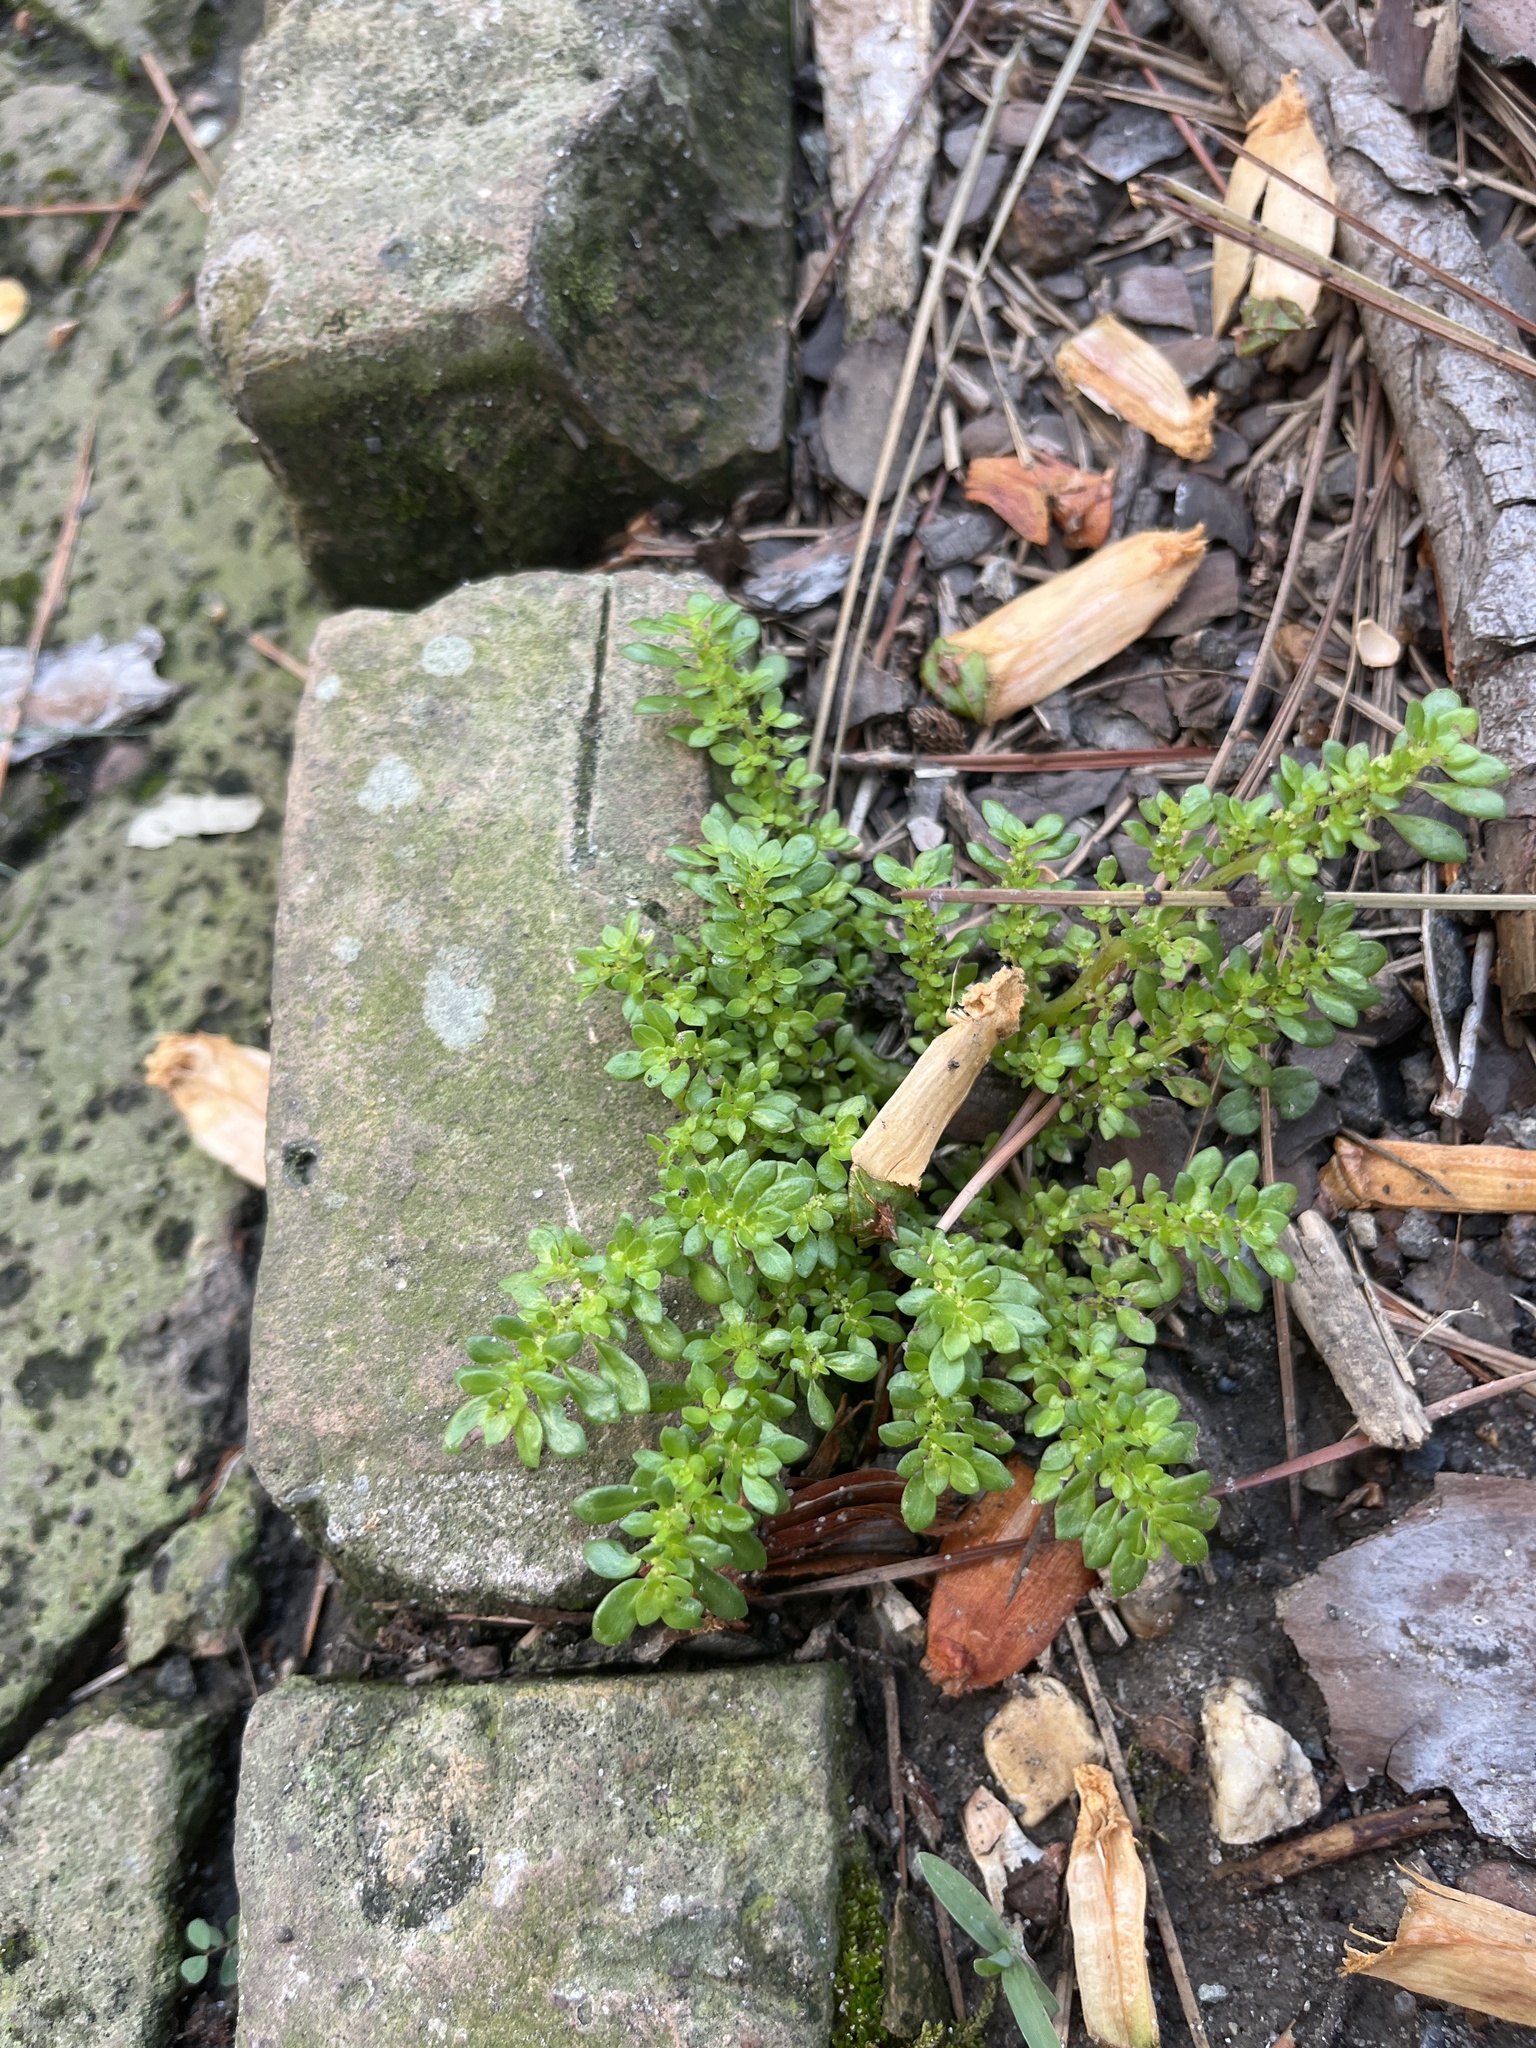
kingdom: Plantae
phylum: Tracheophyta
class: Magnoliopsida
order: Rosales
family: Urticaceae
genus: Pilea
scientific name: Pilea microphylla
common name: Artillery-plant
